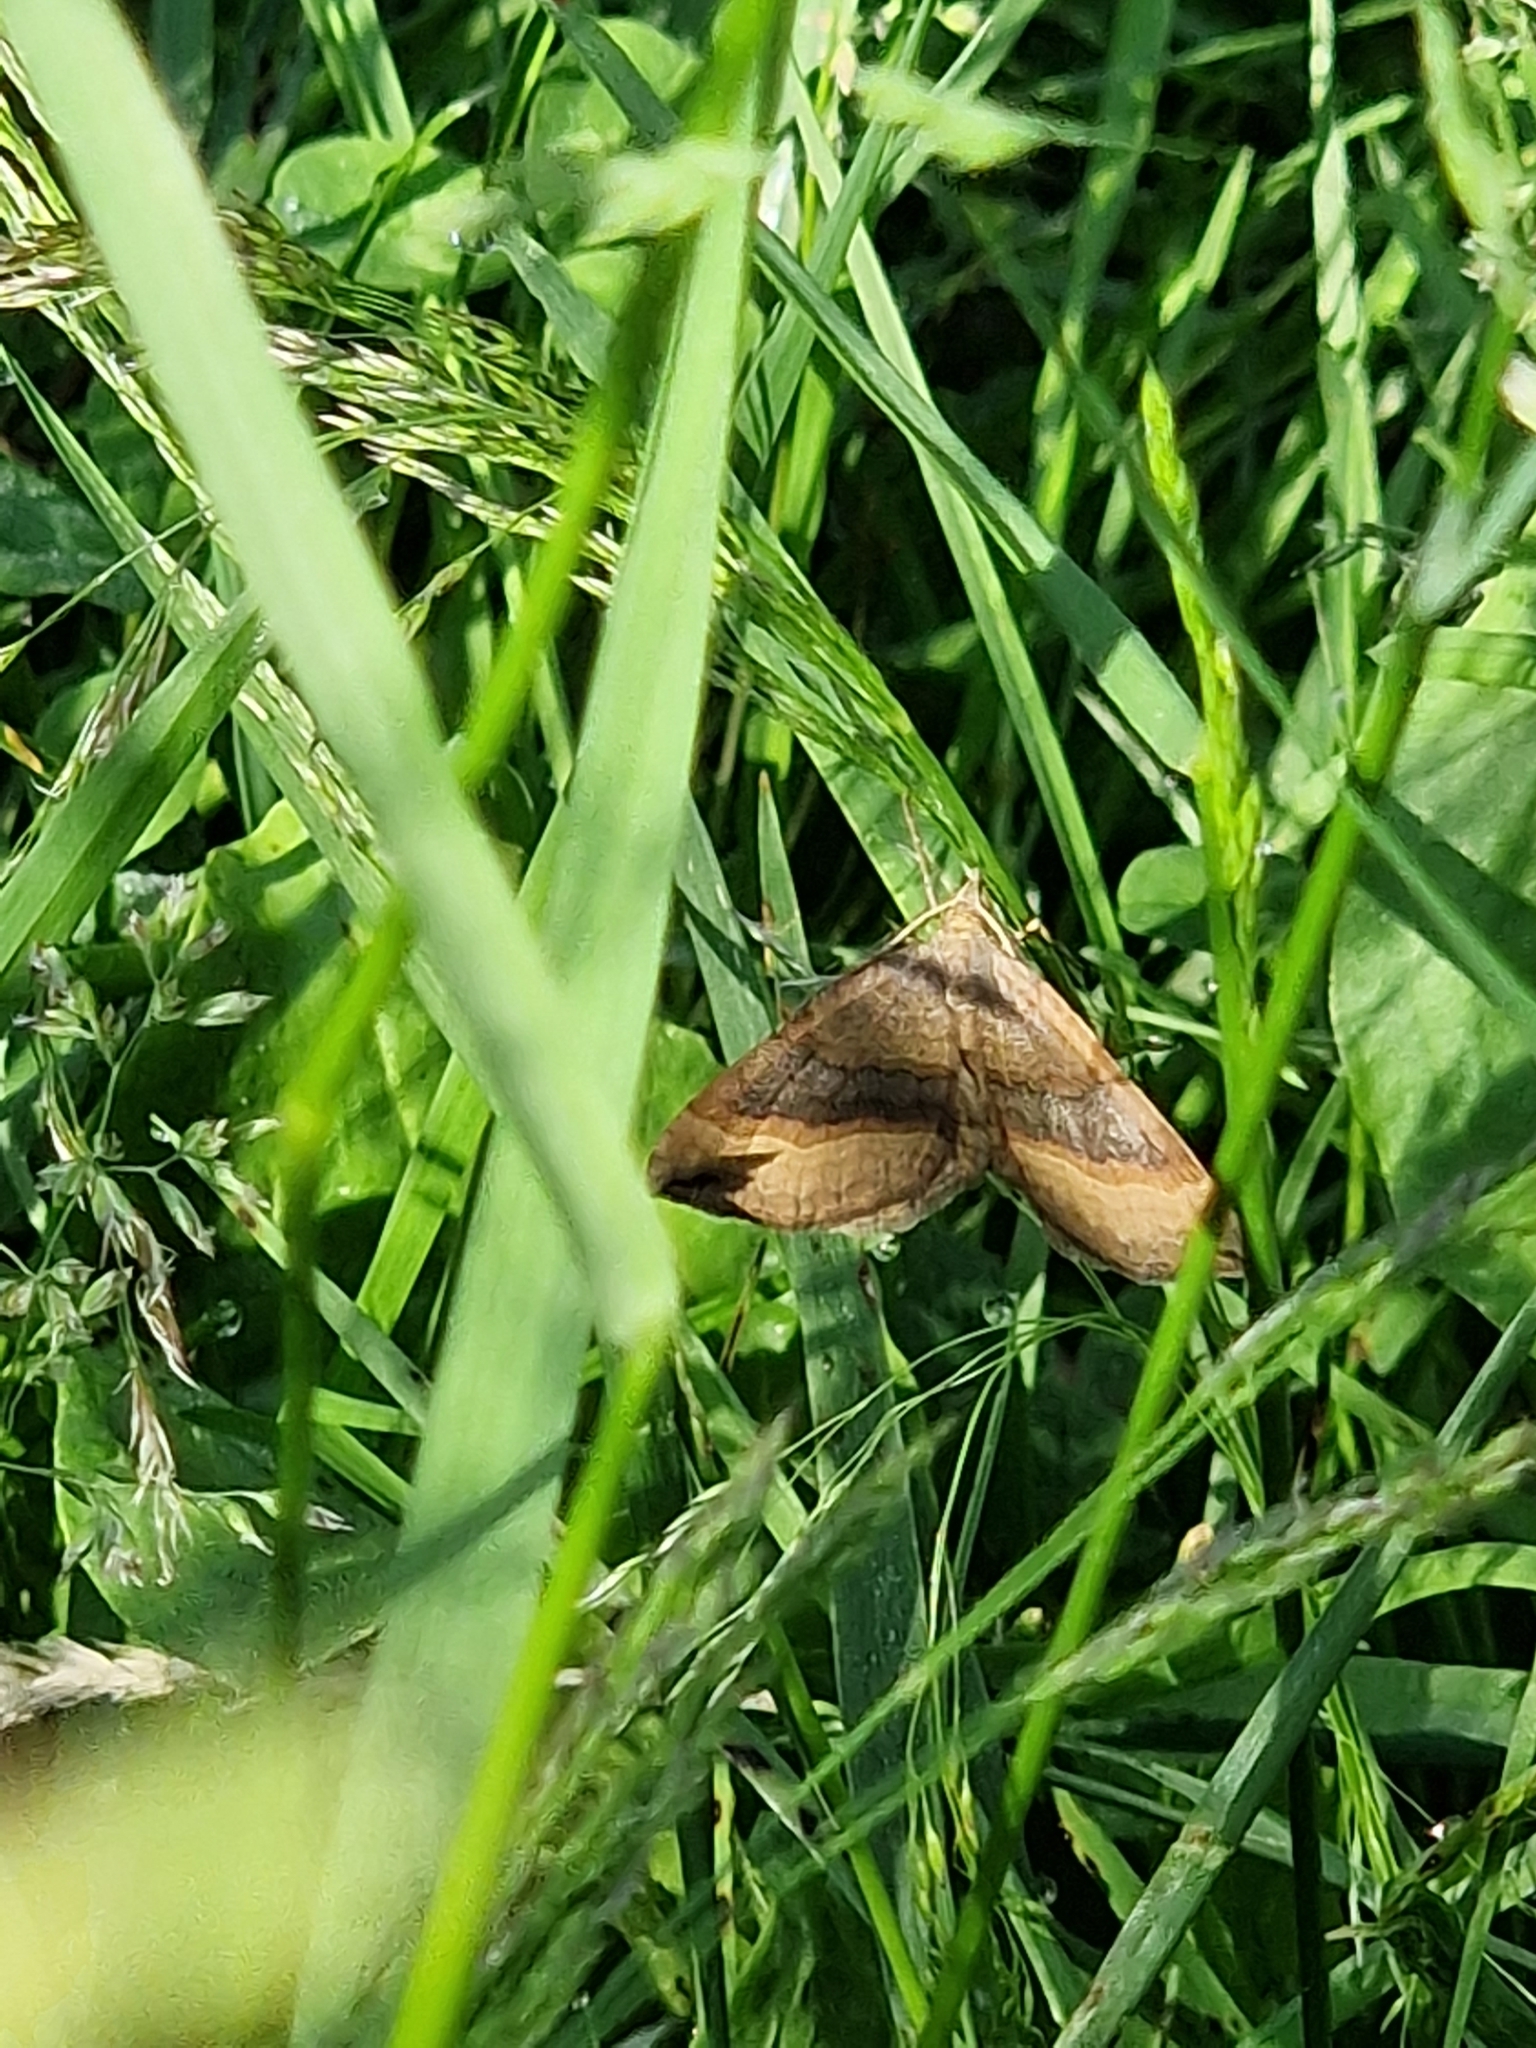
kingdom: Animalia
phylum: Arthropoda
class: Insecta
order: Lepidoptera
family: Geometridae
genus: Scotopteryx
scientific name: Scotopteryx chenopodiata
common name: Shaded broad-bar
